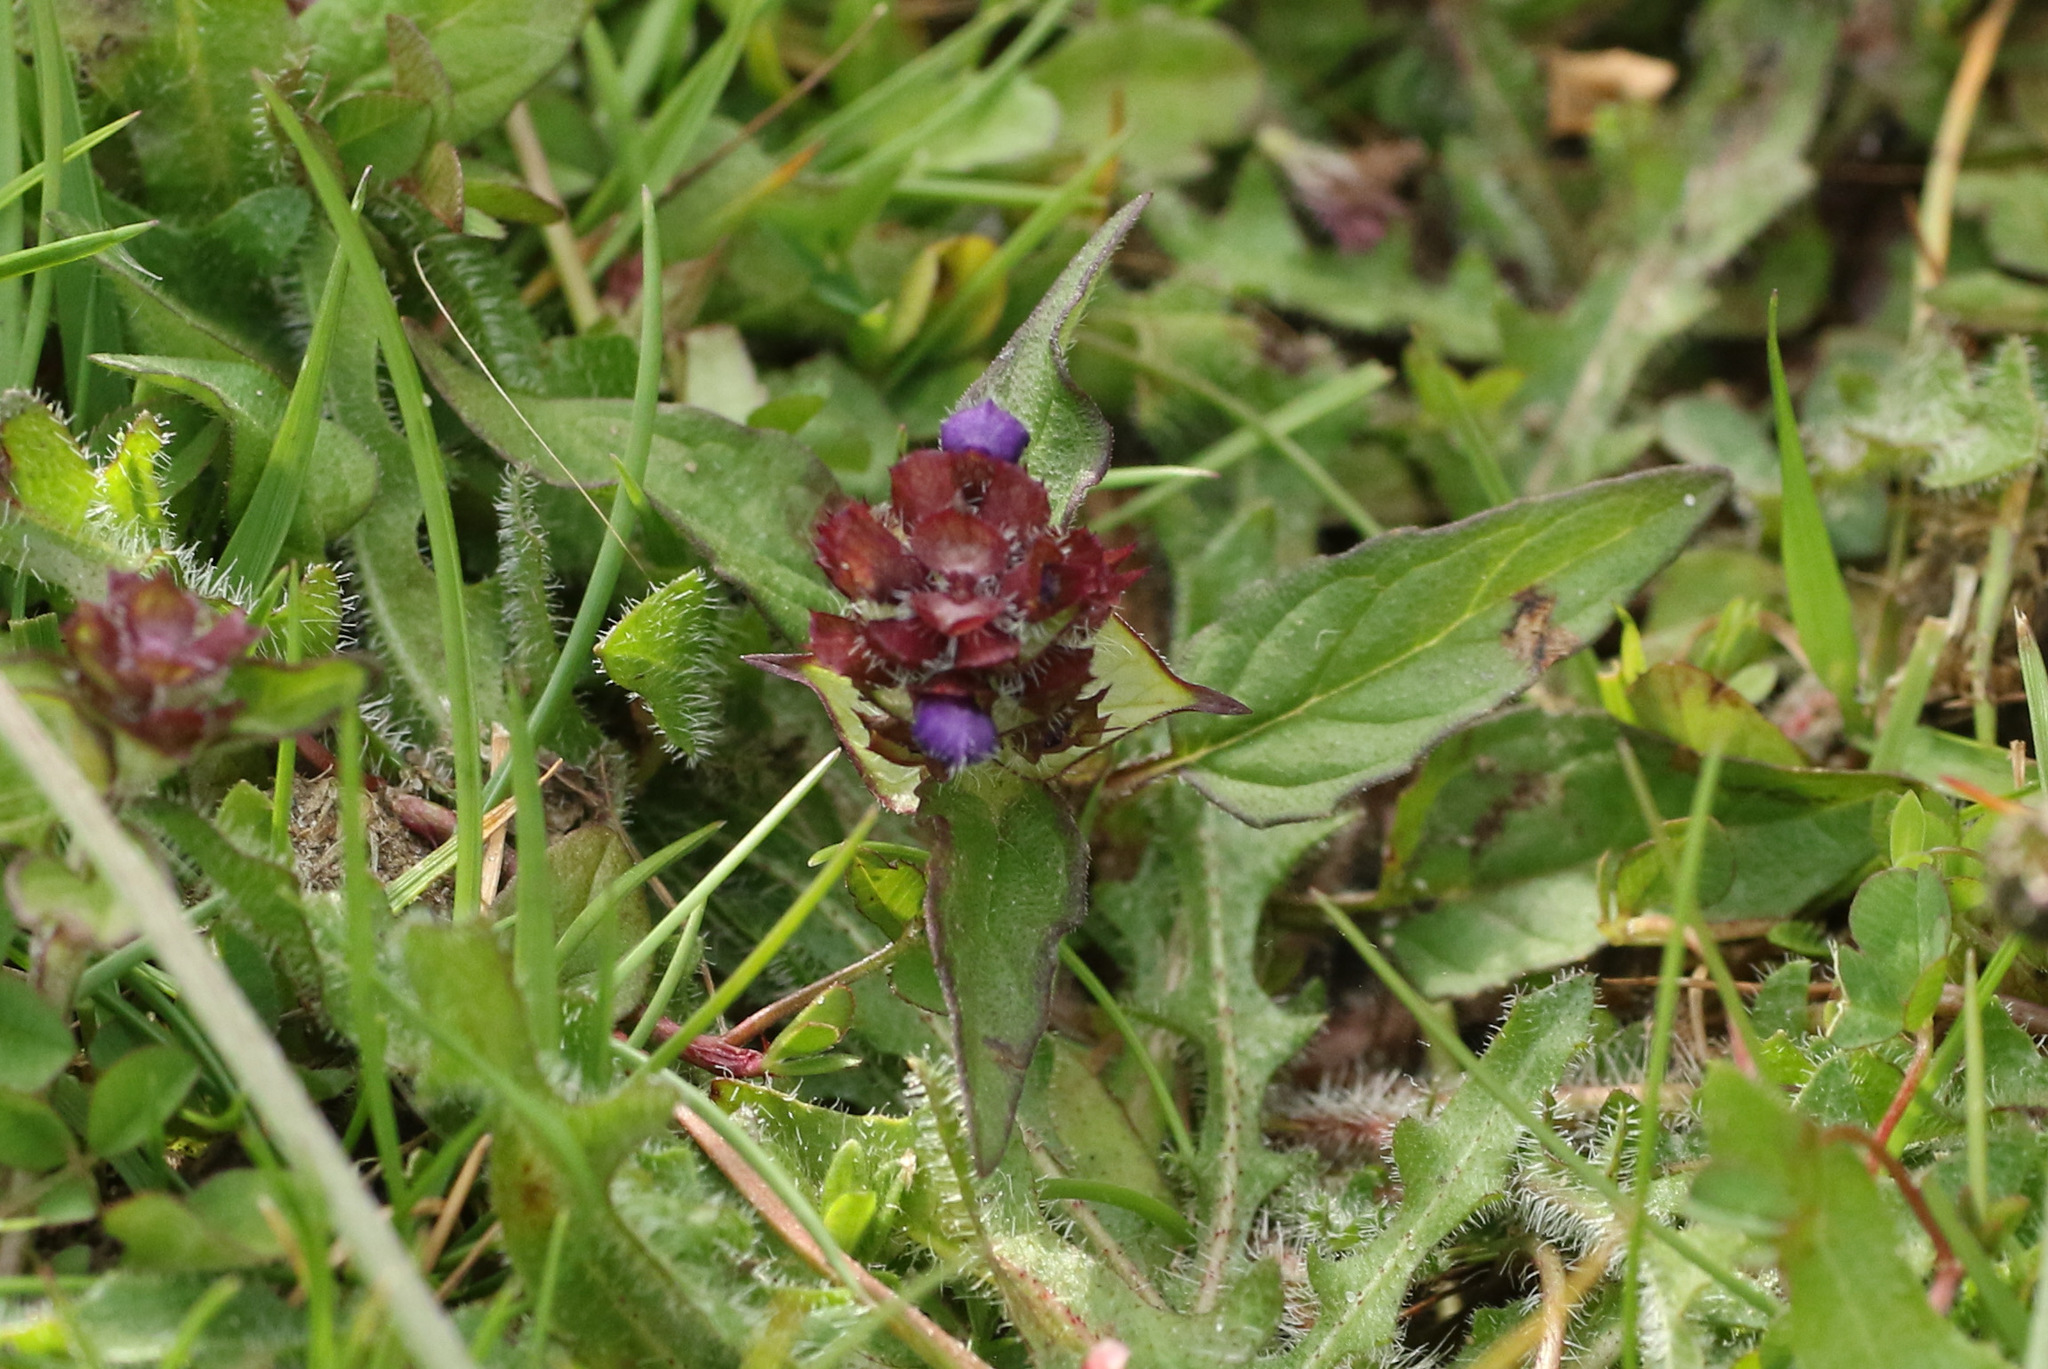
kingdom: Plantae
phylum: Tracheophyta
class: Magnoliopsida
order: Lamiales
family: Lamiaceae
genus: Prunella
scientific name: Prunella vulgaris
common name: Heal-all
